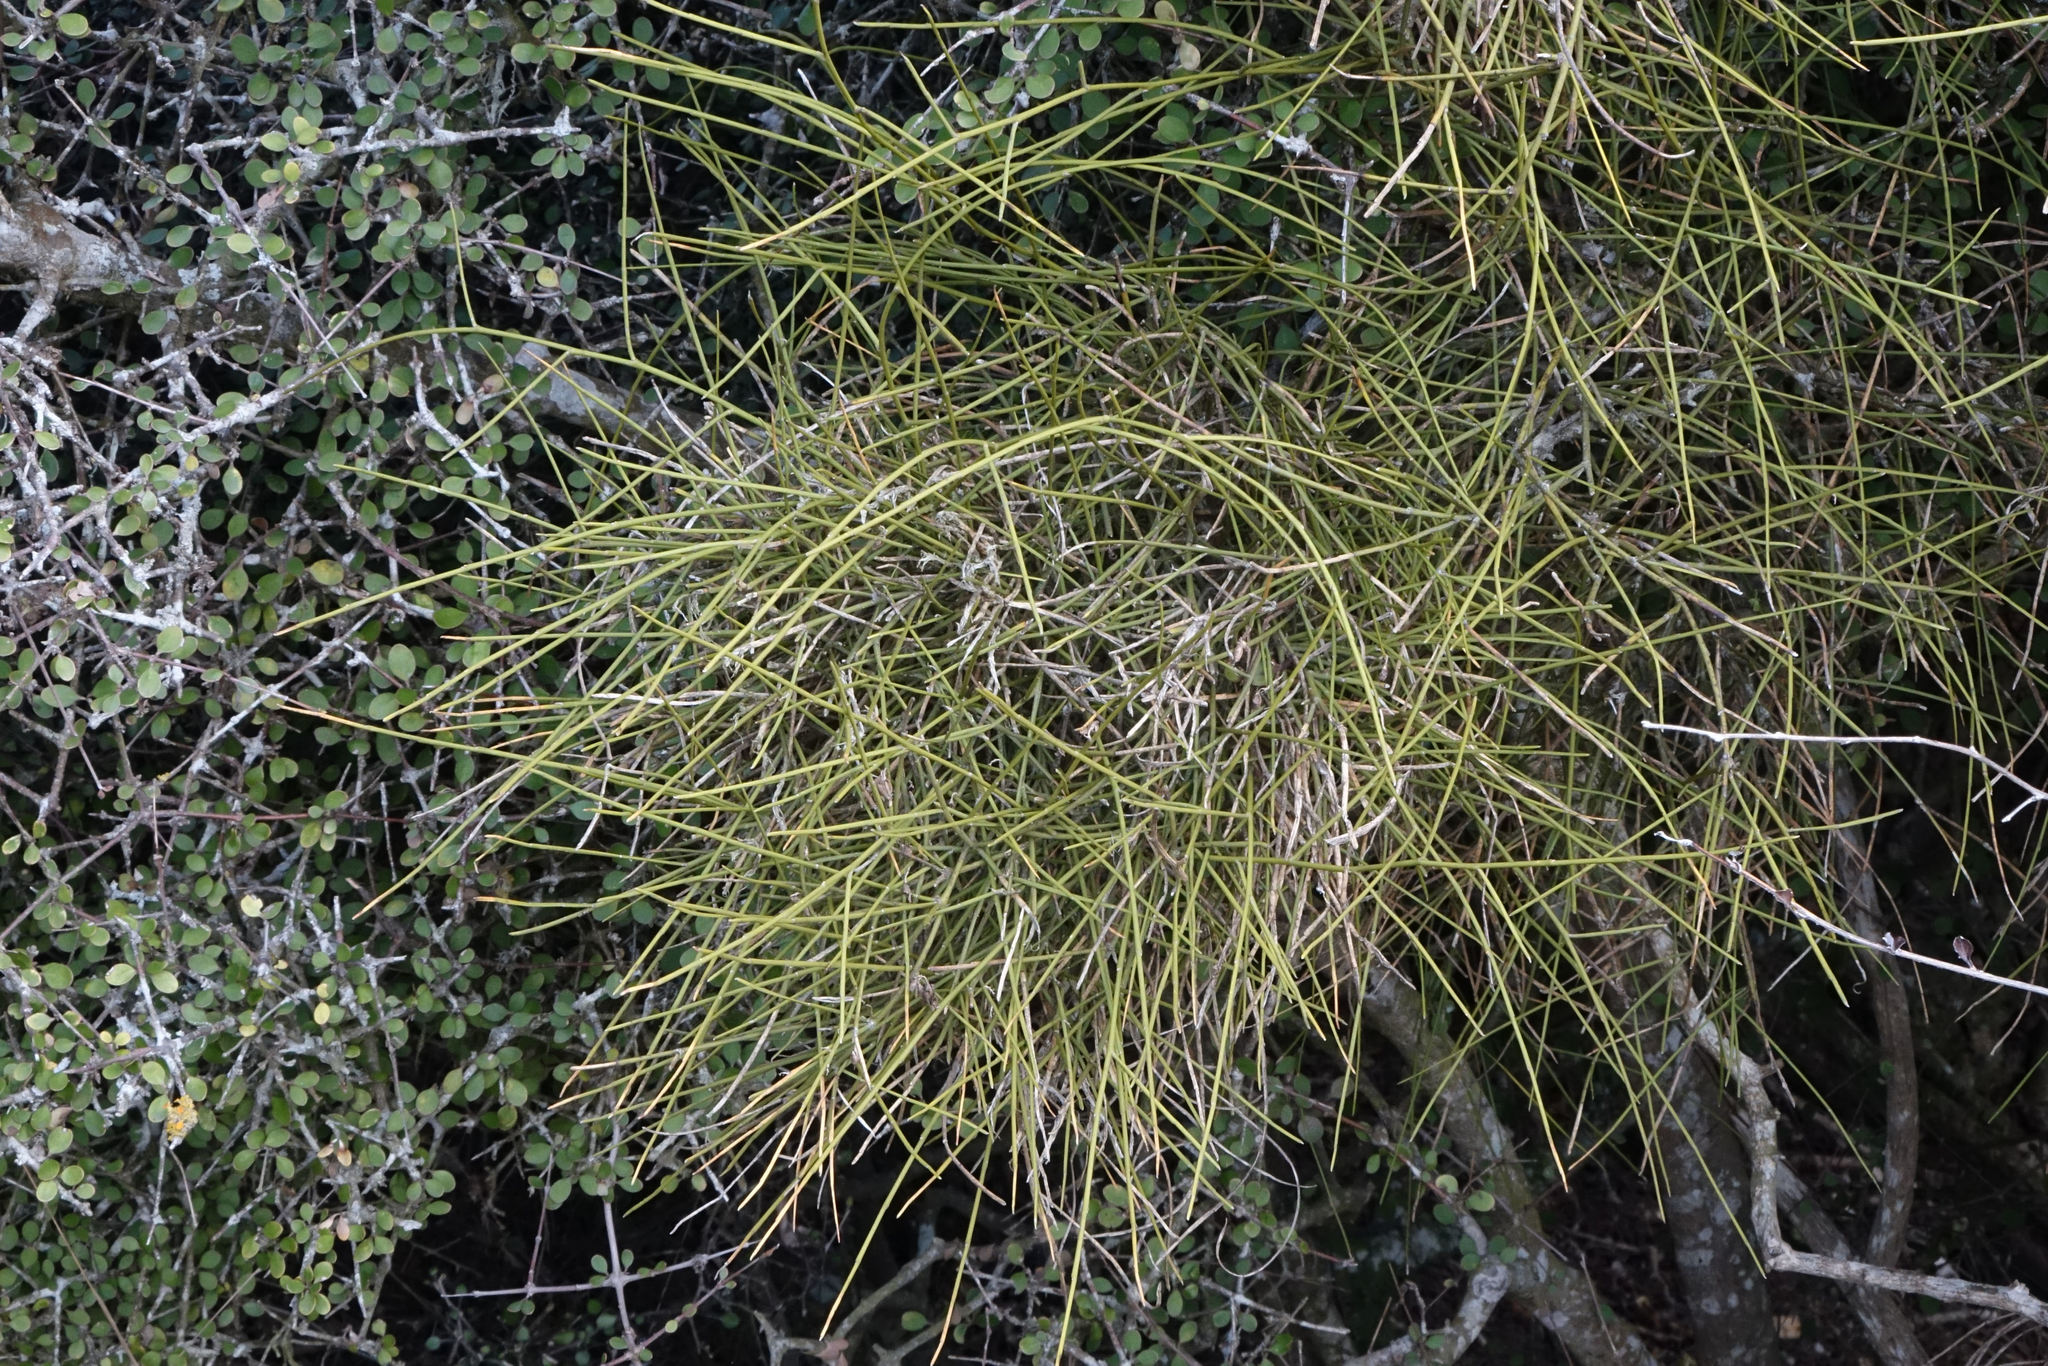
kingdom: Plantae
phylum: Tracheophyta
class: Magnoliopsida
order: Fabales
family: Fabaceae
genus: Carmichaelia
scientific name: Carmichaelia petriei
